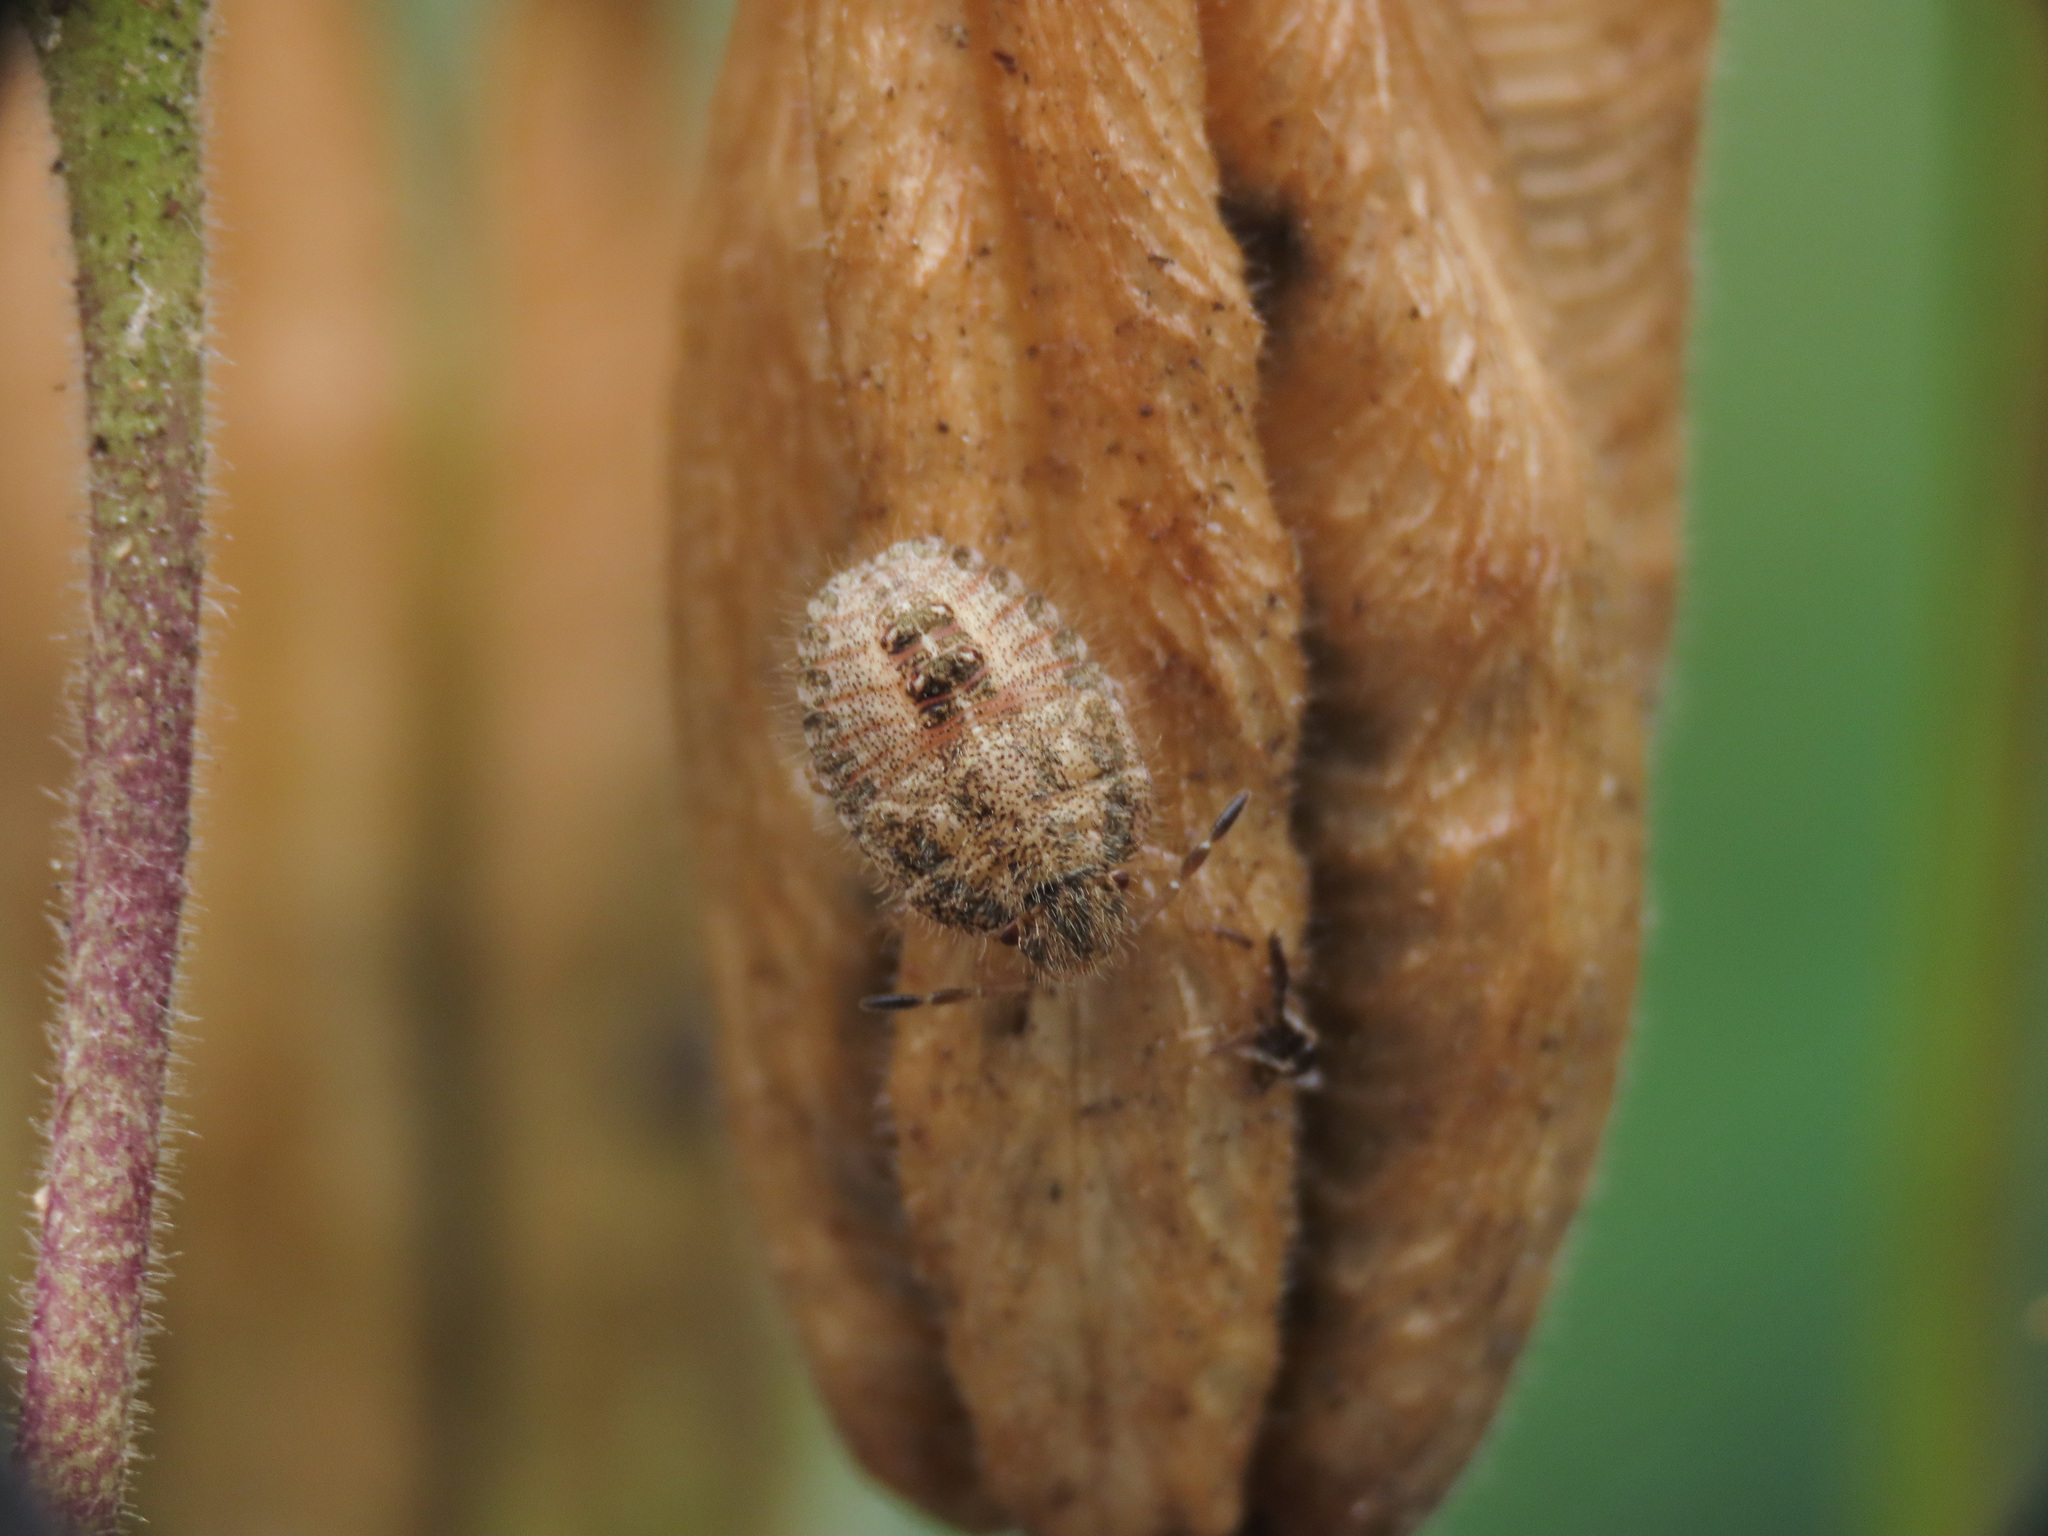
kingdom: Animalia
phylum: Arthropoda
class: Insecta
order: Hemiptera
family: Pentatomidae
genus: Dolycoris
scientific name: Dolycoris baccarum
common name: Sloe bug
